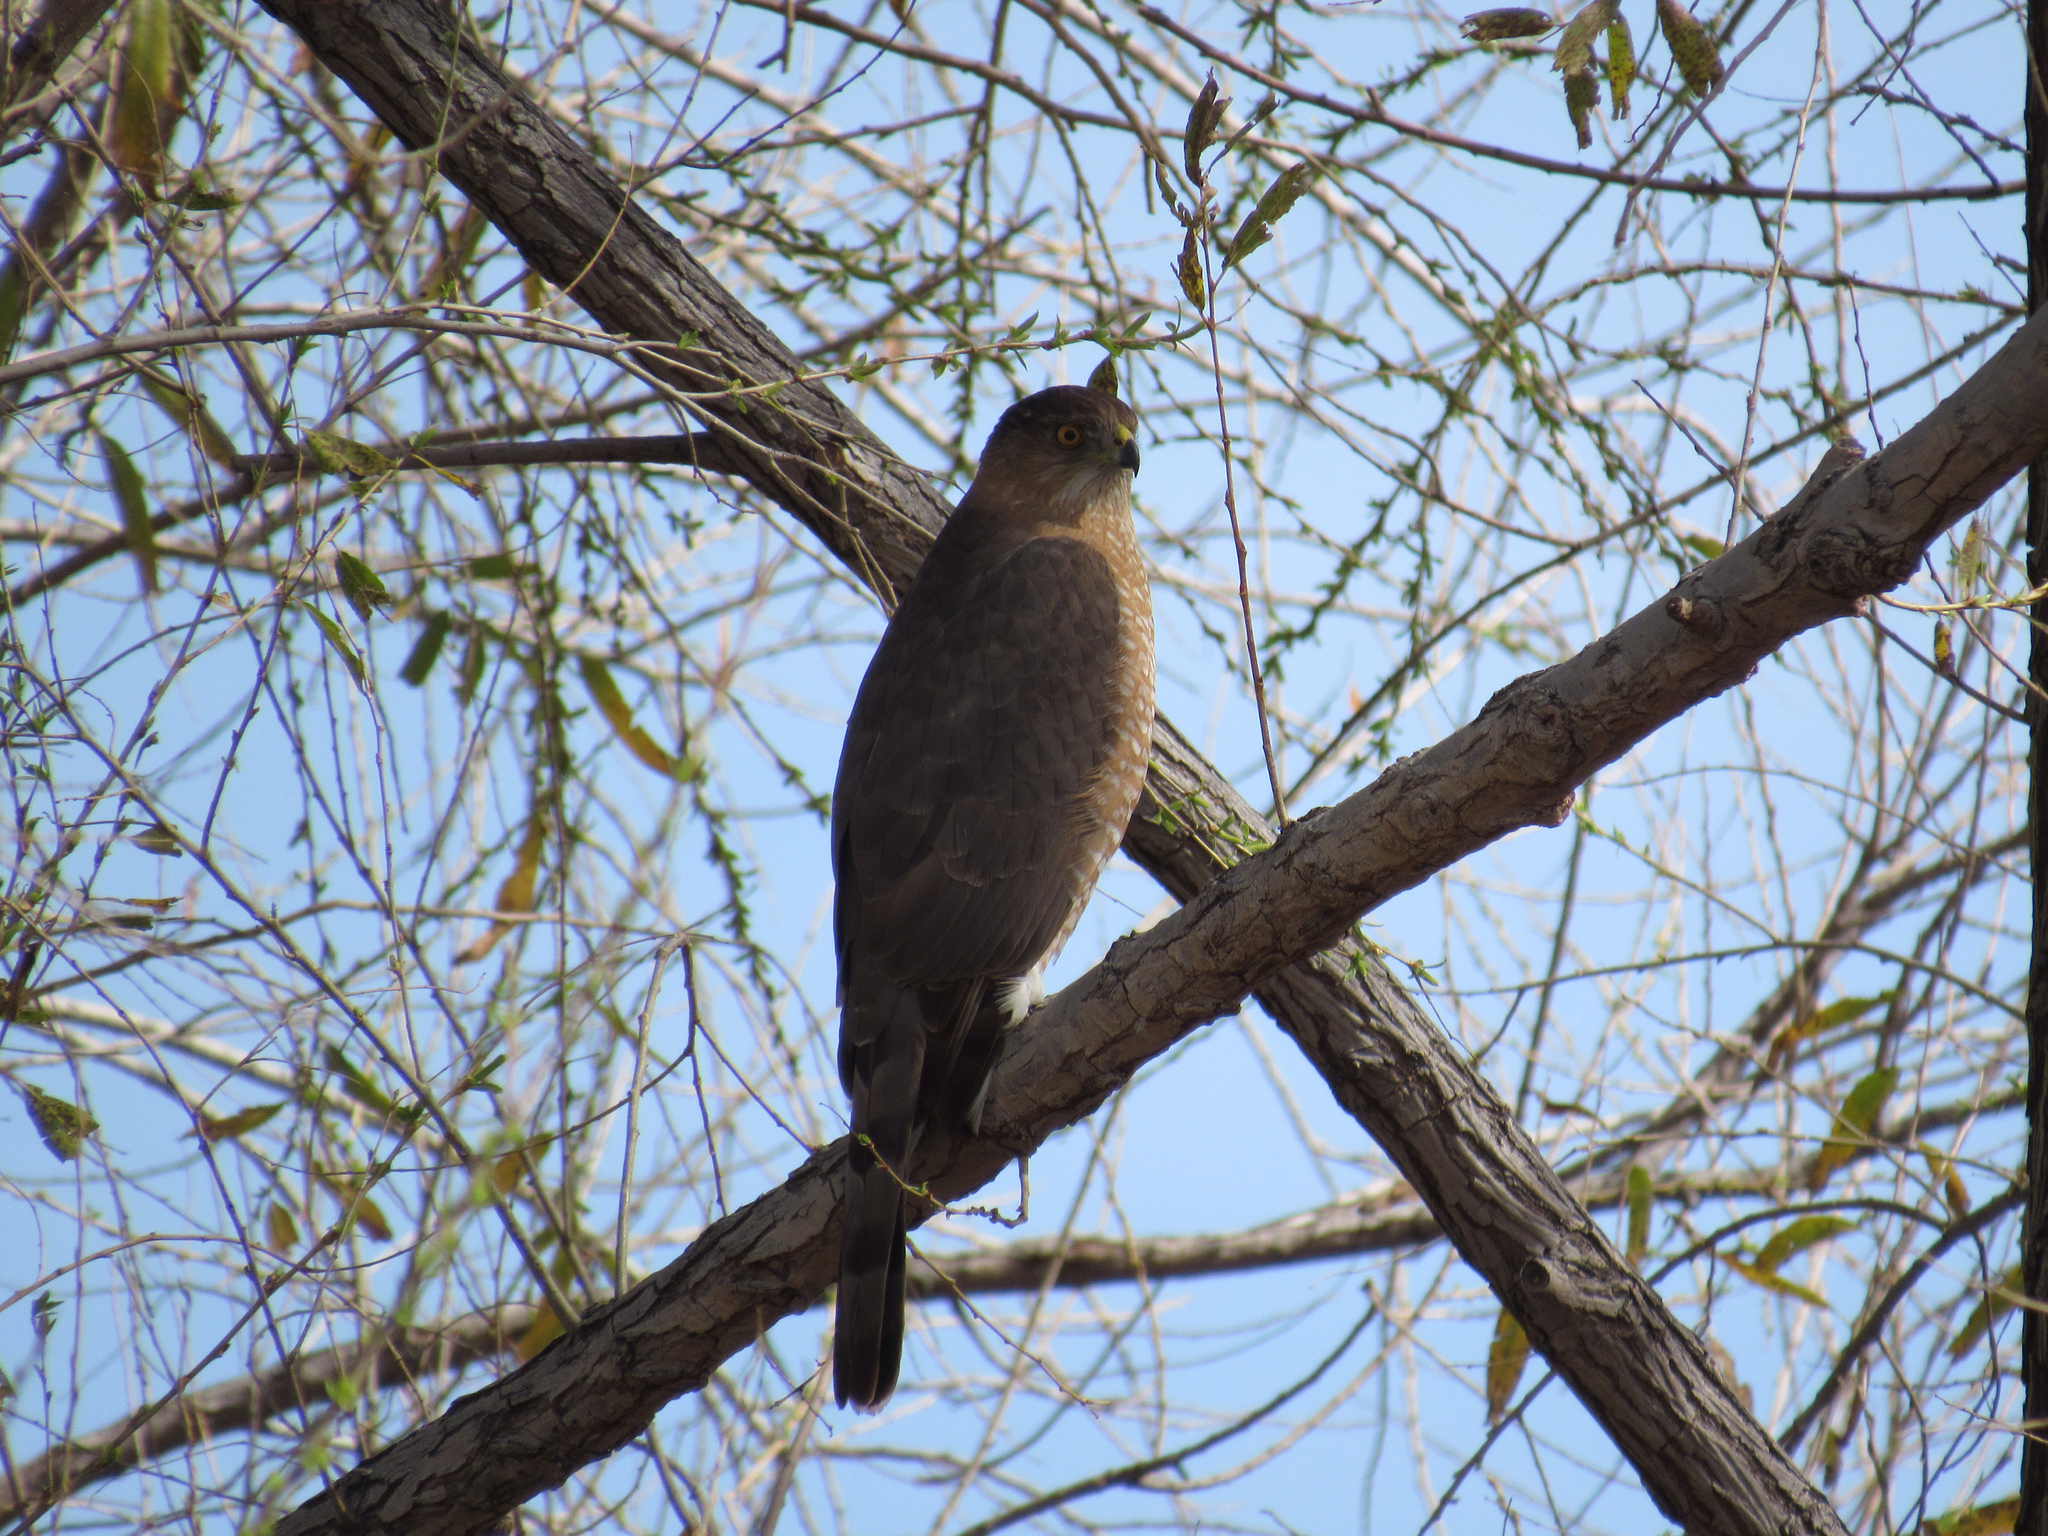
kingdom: Animalia
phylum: Chordata
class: Aves
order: Accipitriformes
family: Accipitridae
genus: Accipiter
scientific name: Accipiter cooperii
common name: Cooper's hawk
